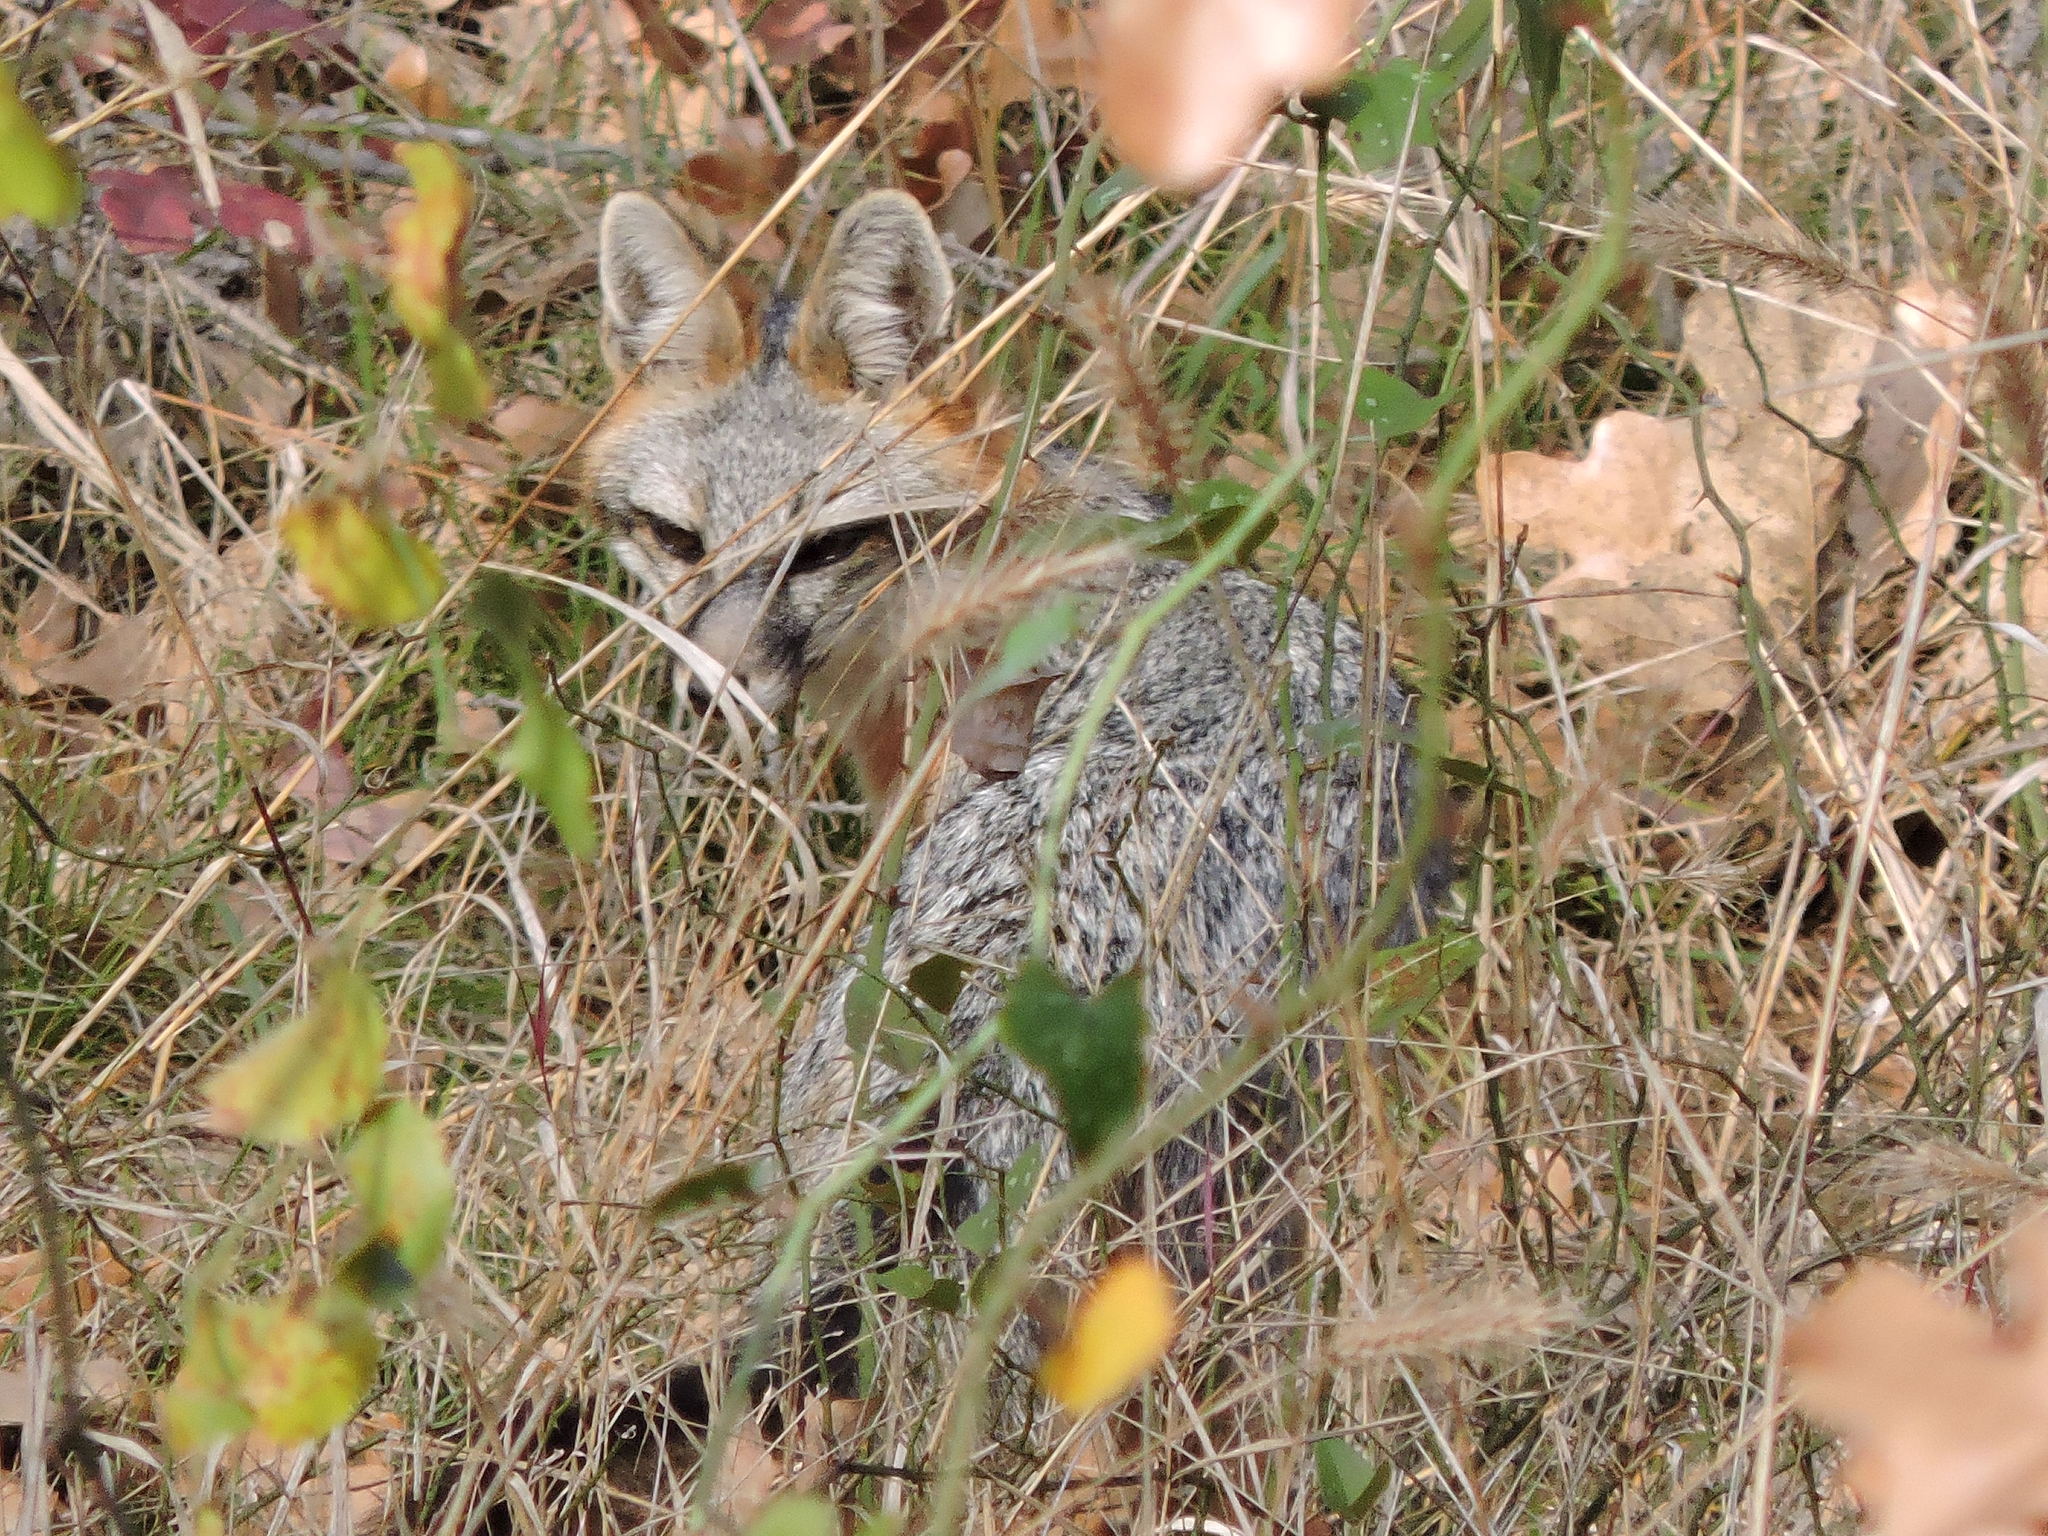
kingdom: Animalia
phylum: Chordata
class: Mammalia
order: Carnivora
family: Canidae
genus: Urocyon
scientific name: Urocyon cinereoargenteus
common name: Gray fox
